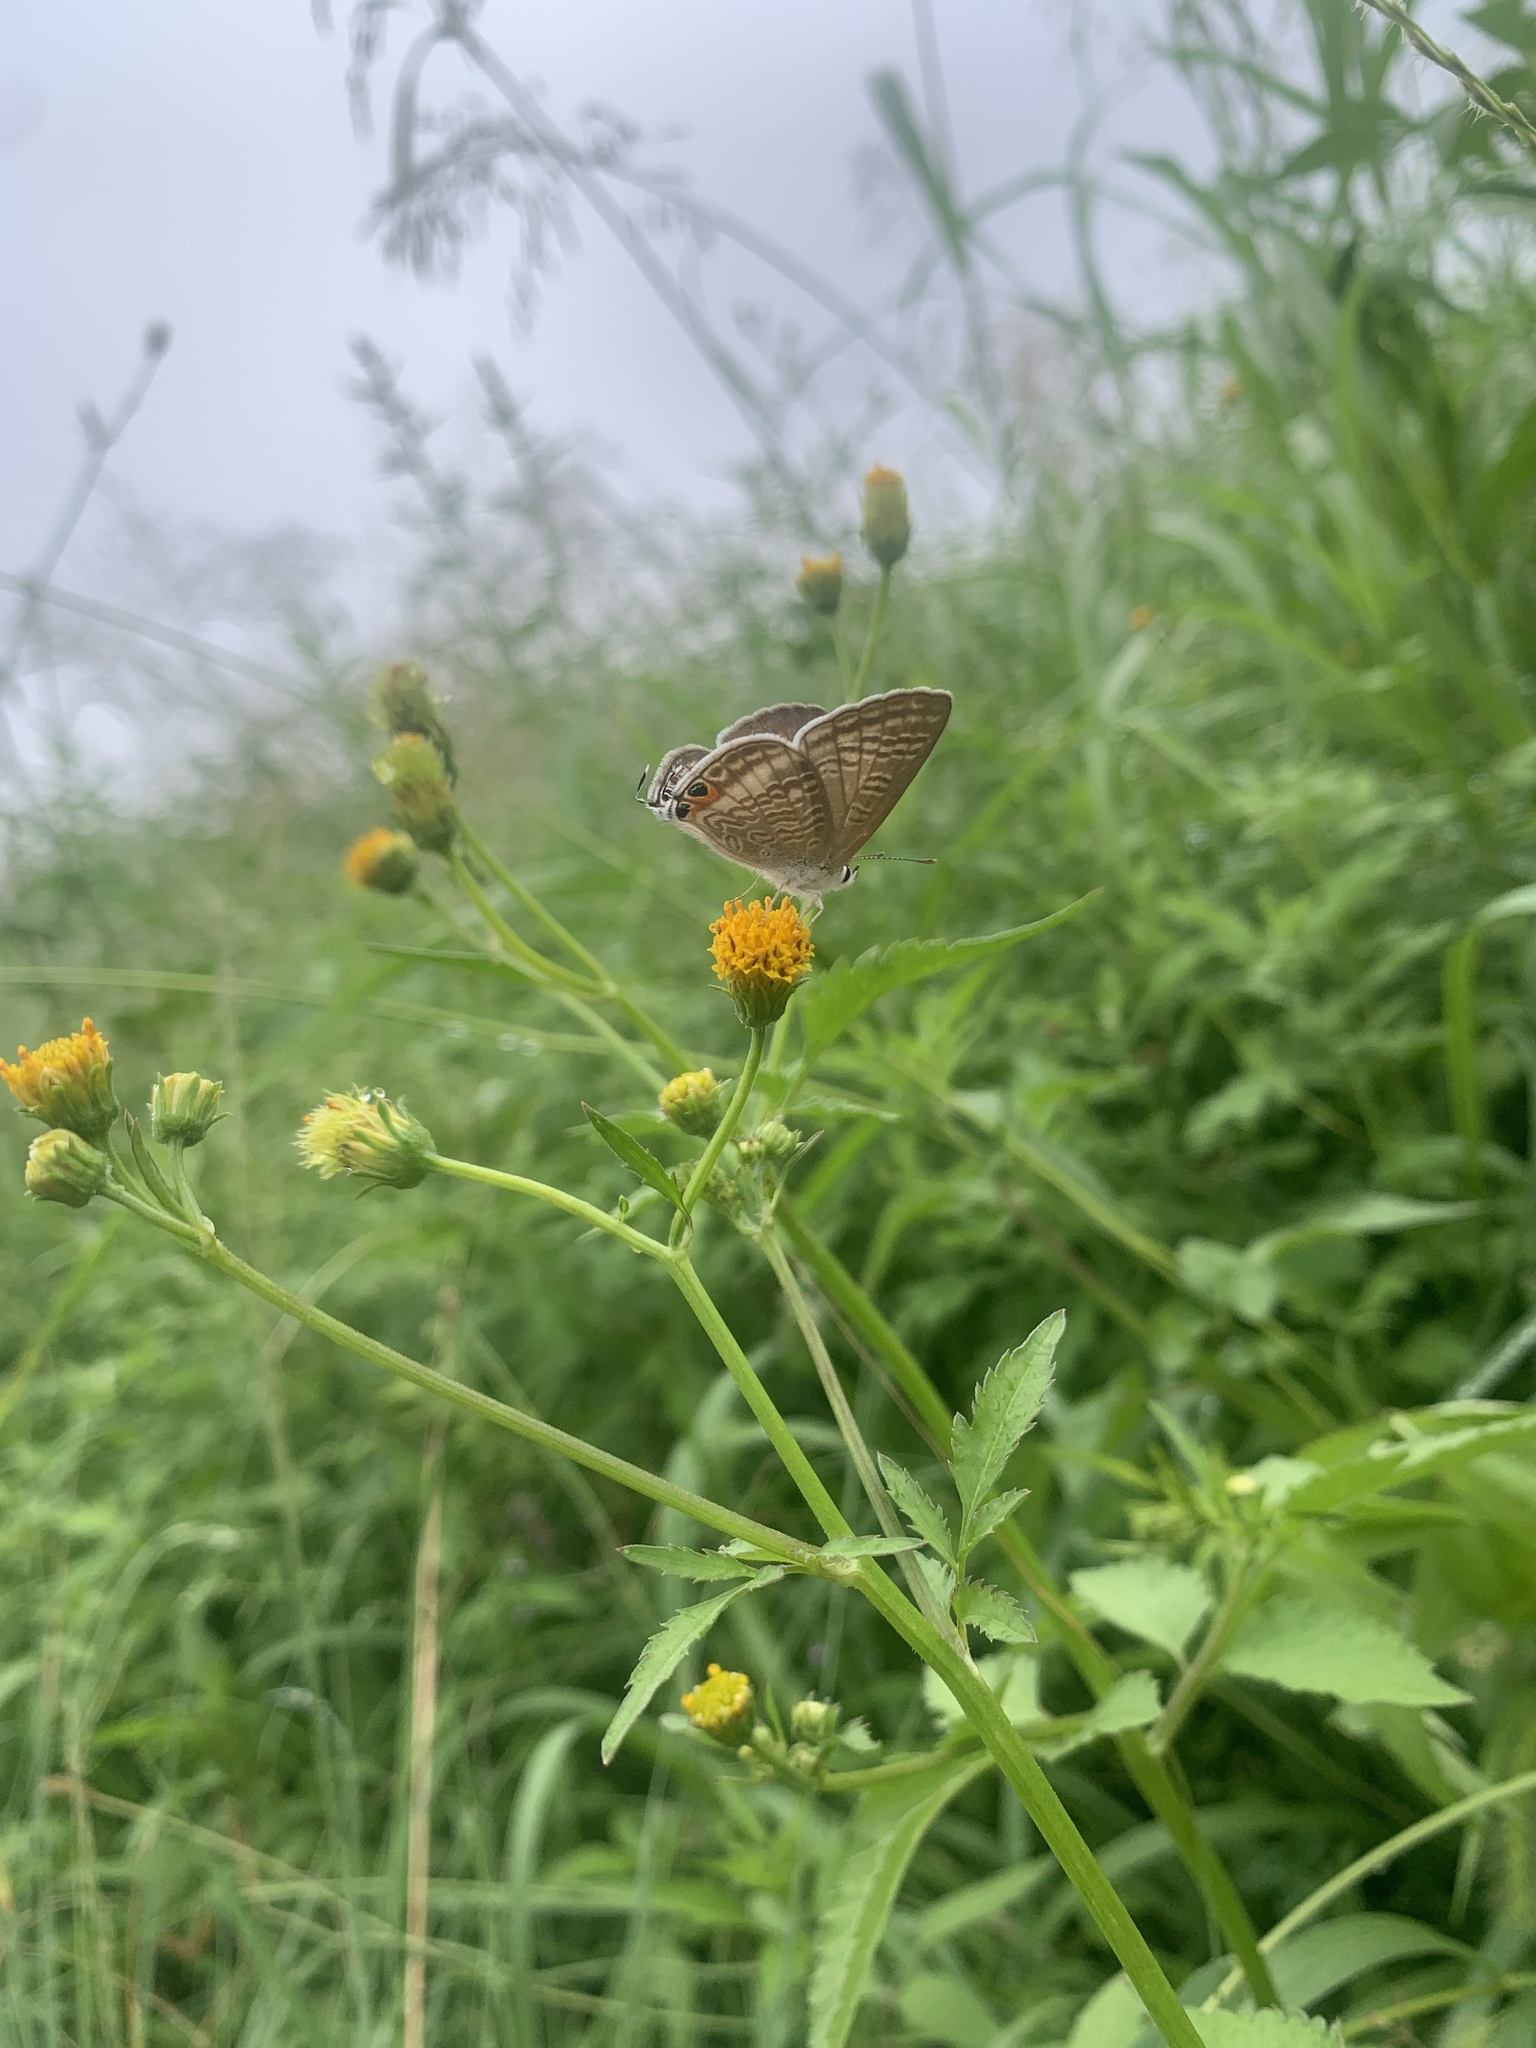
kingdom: Animalia
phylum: Arthropoda
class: Insecta
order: Lepidoptera
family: Lycaenidae
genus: Lampides
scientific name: Lampides boeticus
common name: Long-tailed blue
